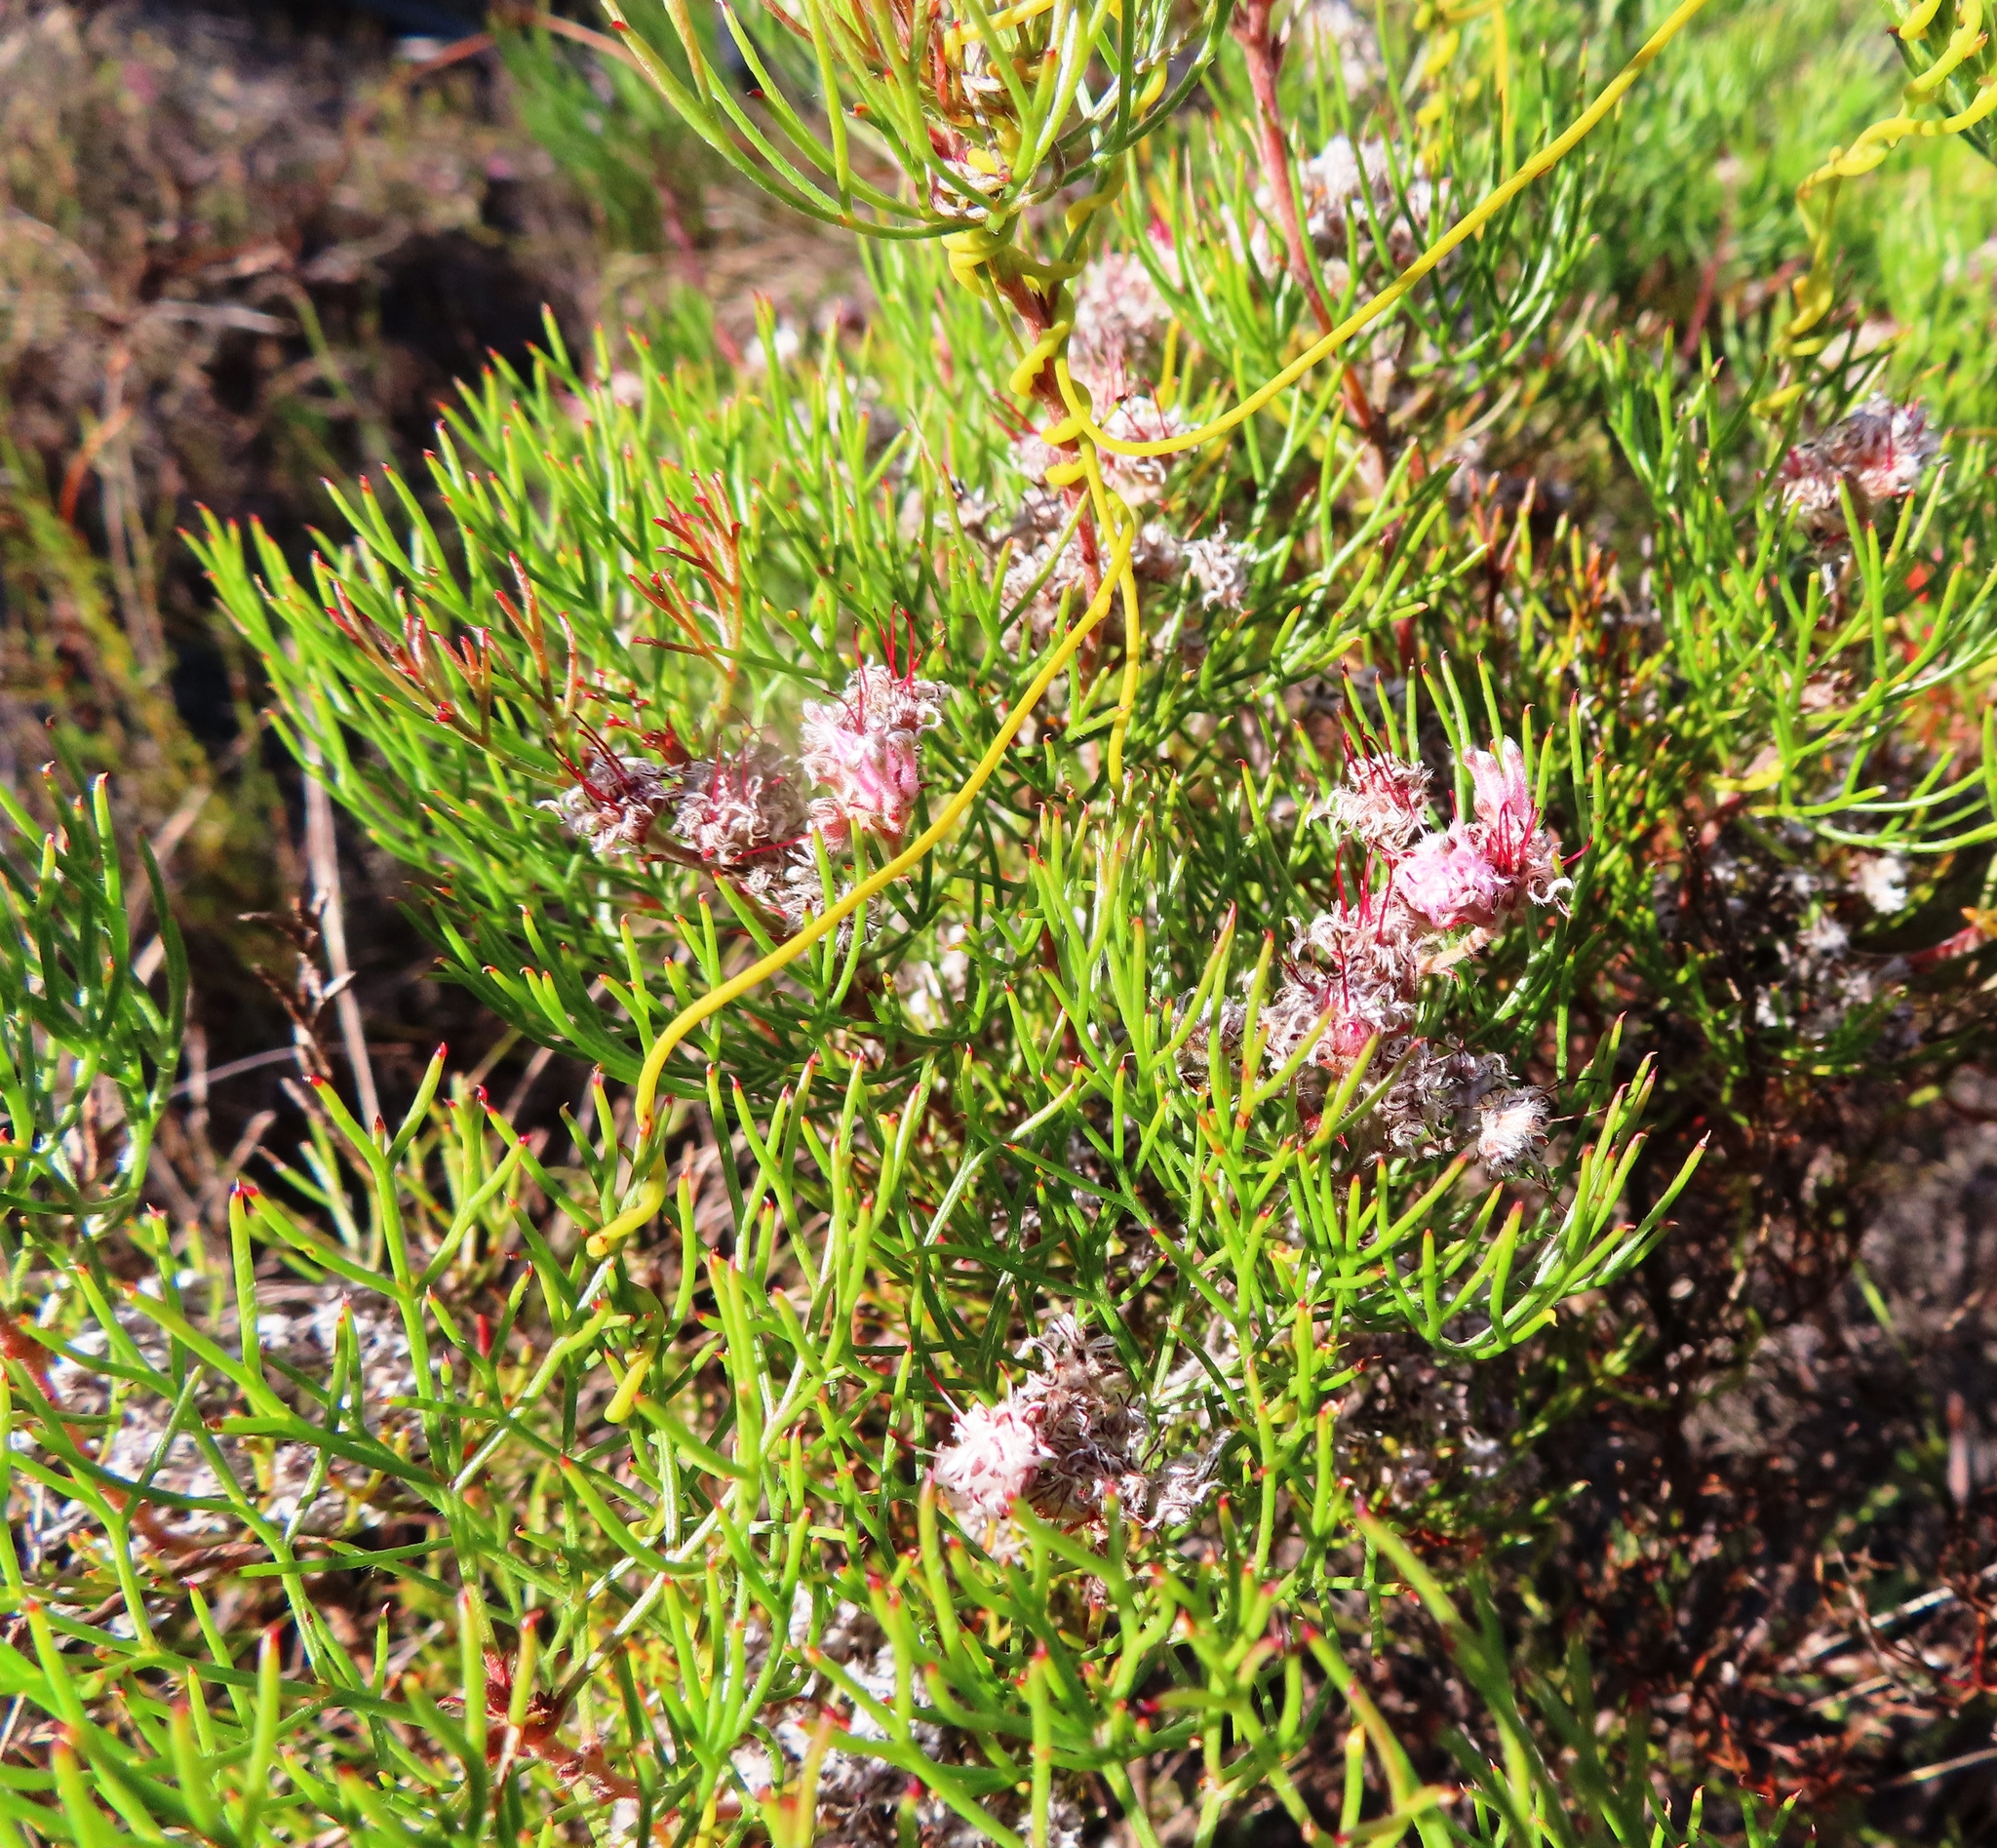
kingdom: Plantae
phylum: Tracheophyta
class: Magnoliopsida
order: Proteales
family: Proteaceae
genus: Serruria
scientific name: Serruria fasciflora
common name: Common pin spiderhead
